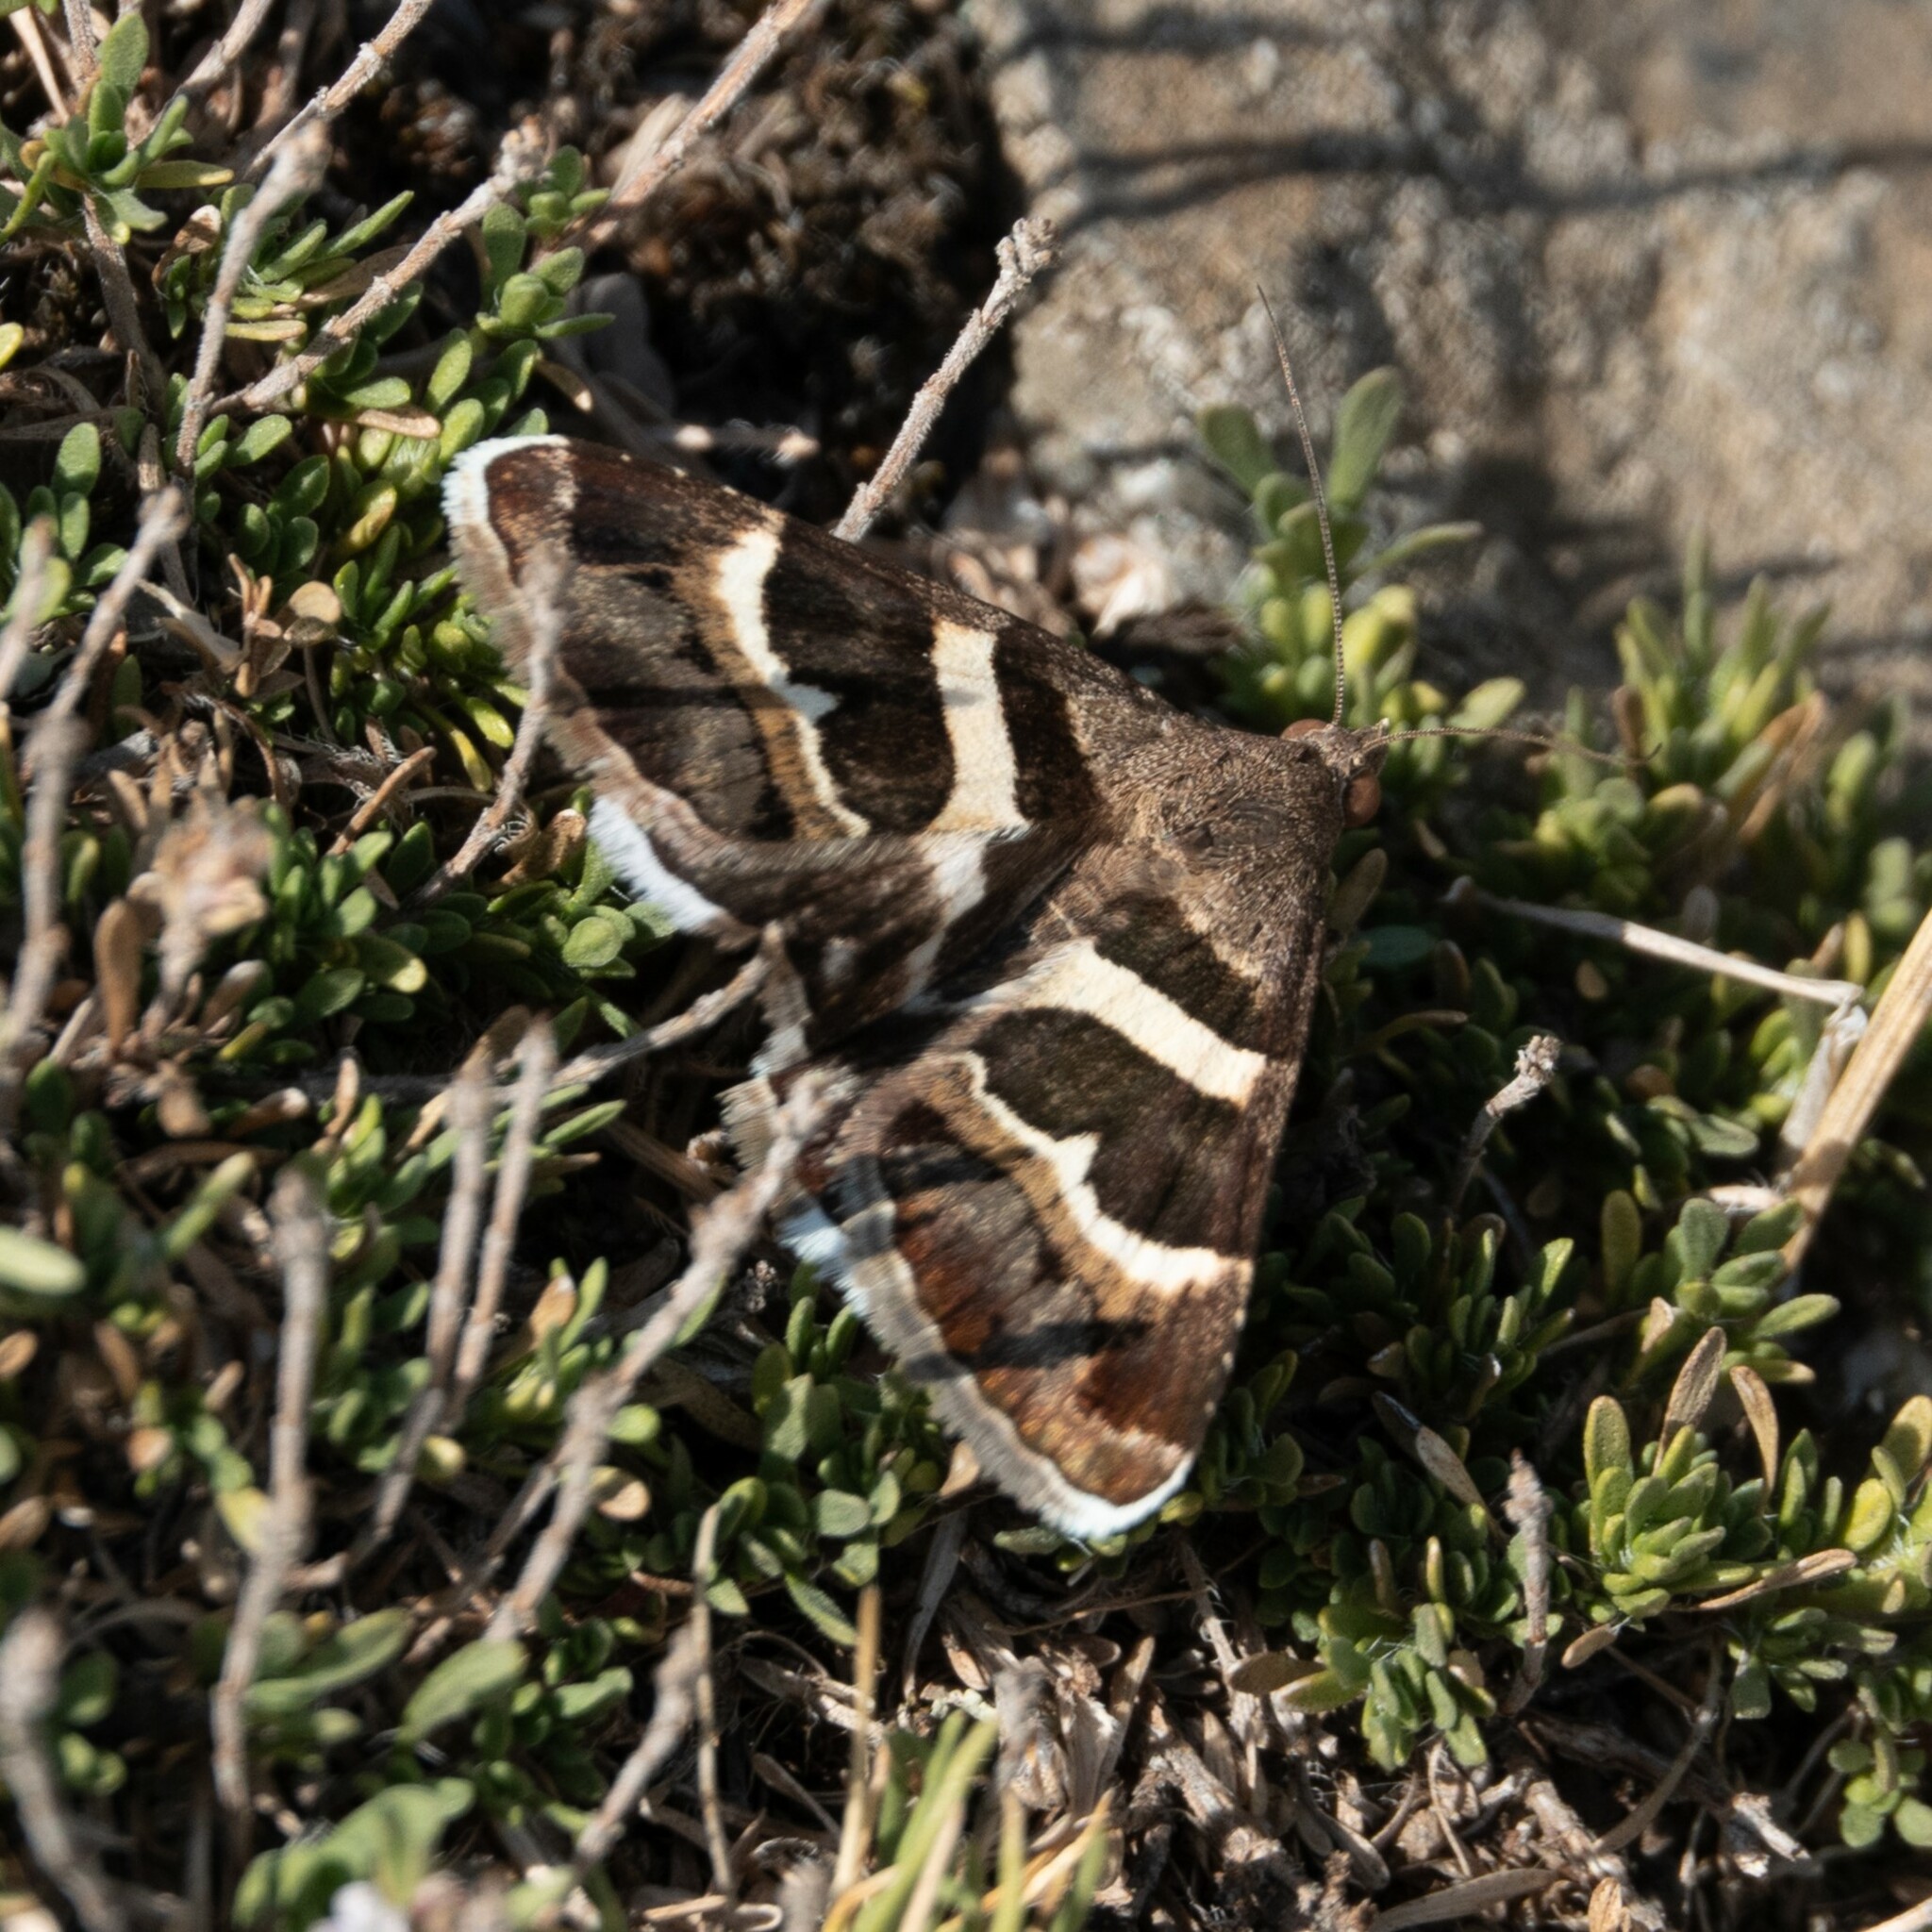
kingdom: Animalia
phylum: Arthropoda
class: Insecta
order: Lepidoptera
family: Erebidae
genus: Grammodes
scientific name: Grammodes stolida
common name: Geometrician
